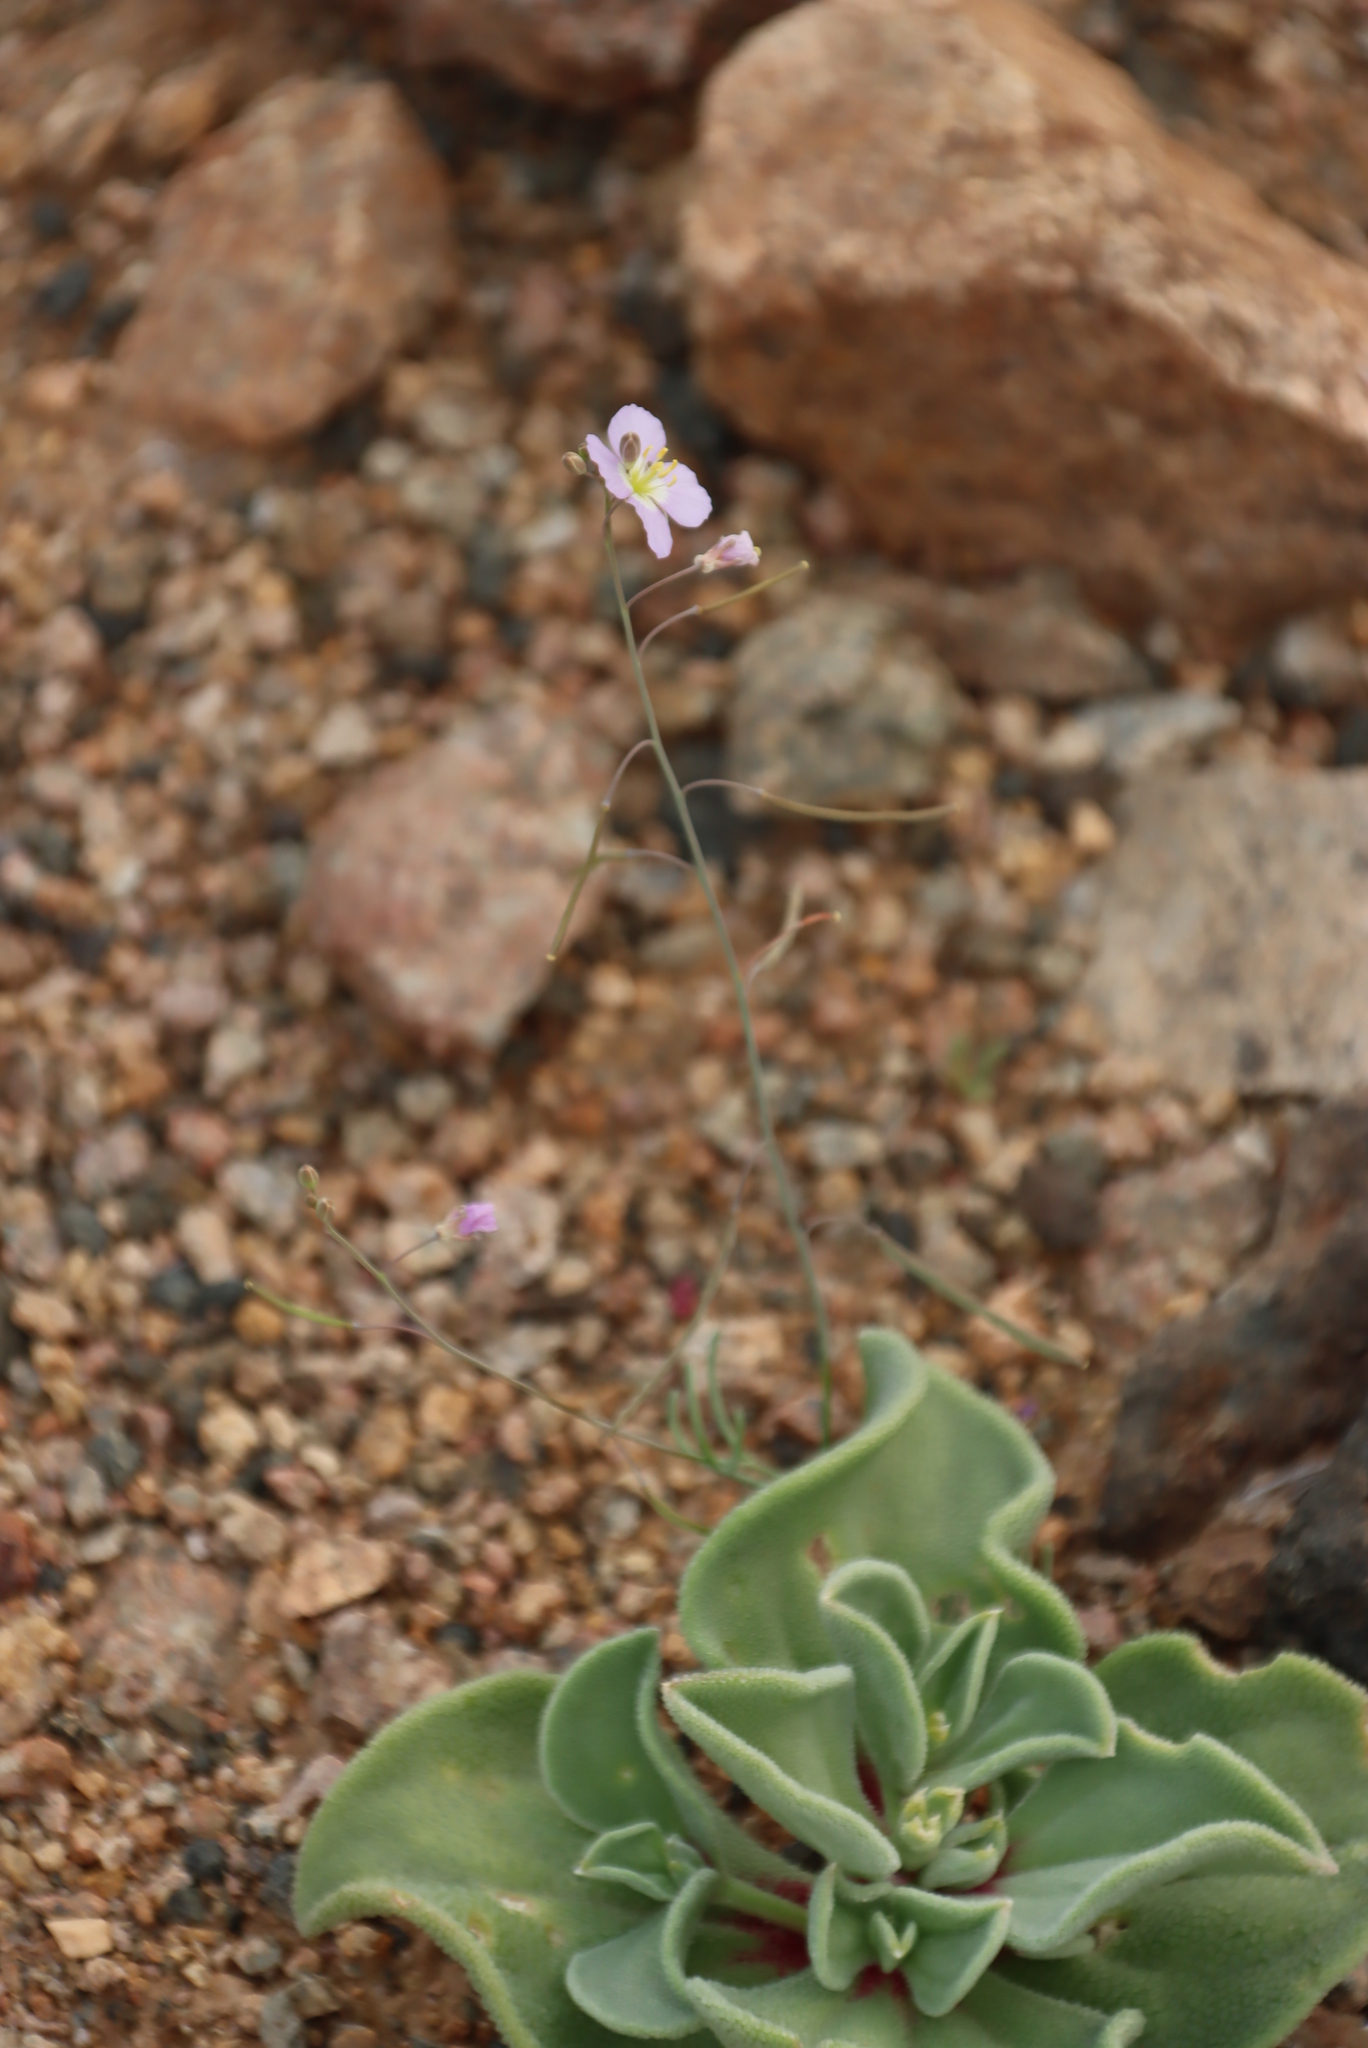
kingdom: Plantae
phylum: Tracheophyta
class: Magnoliopsida
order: Brassicales
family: Brassicaceae
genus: Heliophila
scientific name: Heliophila deserticola
